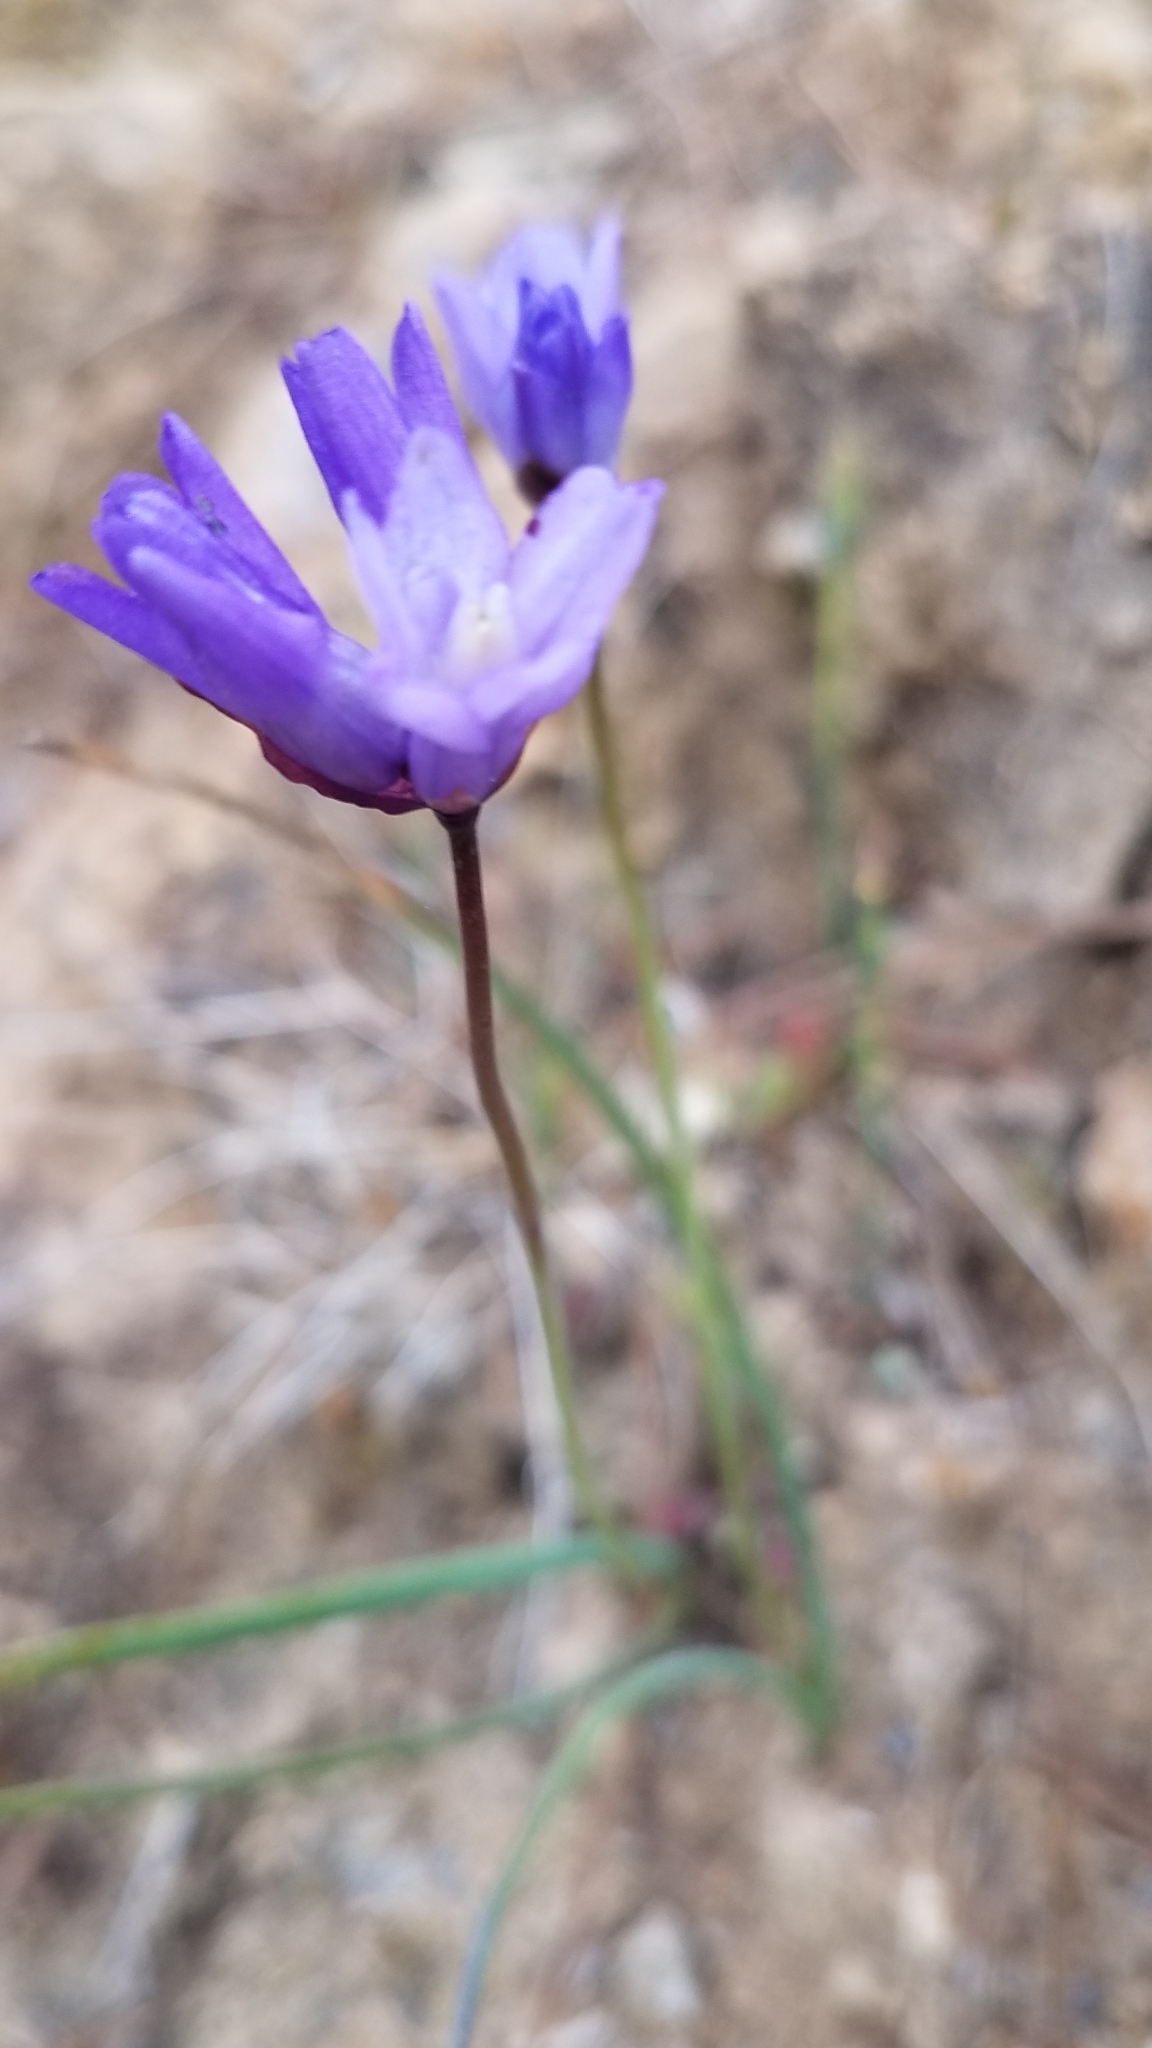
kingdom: Plantae
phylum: Tracheophyta
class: Liliopsida
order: Asparagales
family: Asparagaceae
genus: Dipterostemon
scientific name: Dipterostemon capitatus
